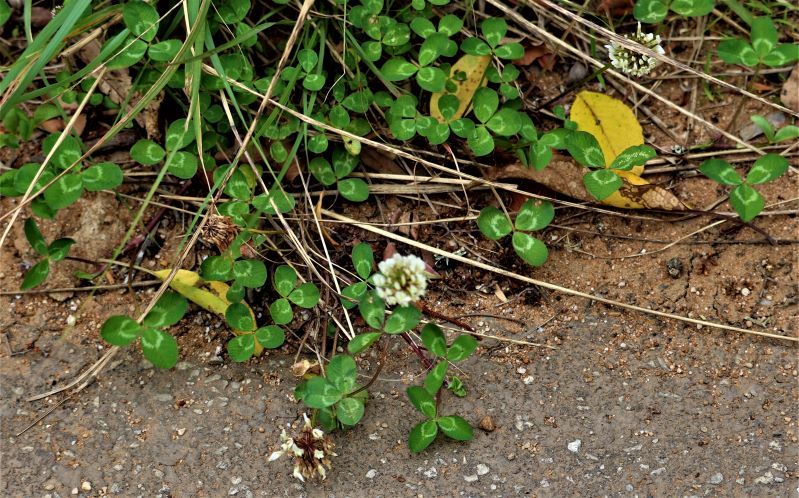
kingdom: Plantae
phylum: Tracheophyta
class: Magnoliopsida
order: Fabales
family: Fabaceae
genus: Trifolium
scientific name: Trifolium repens
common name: White clover
